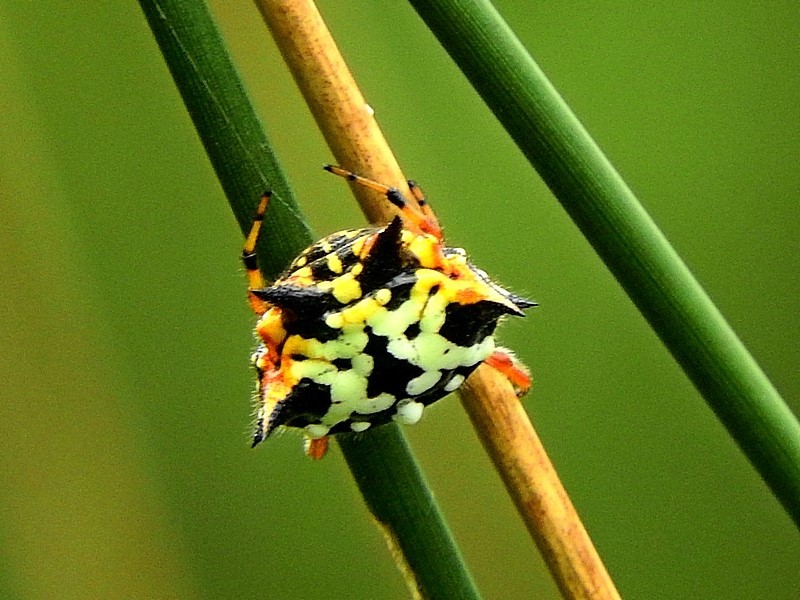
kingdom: Animalia
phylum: Arthropoda
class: Arachnida
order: Araneae
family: Araneidae
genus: Austracantha
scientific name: Austracantha minax
